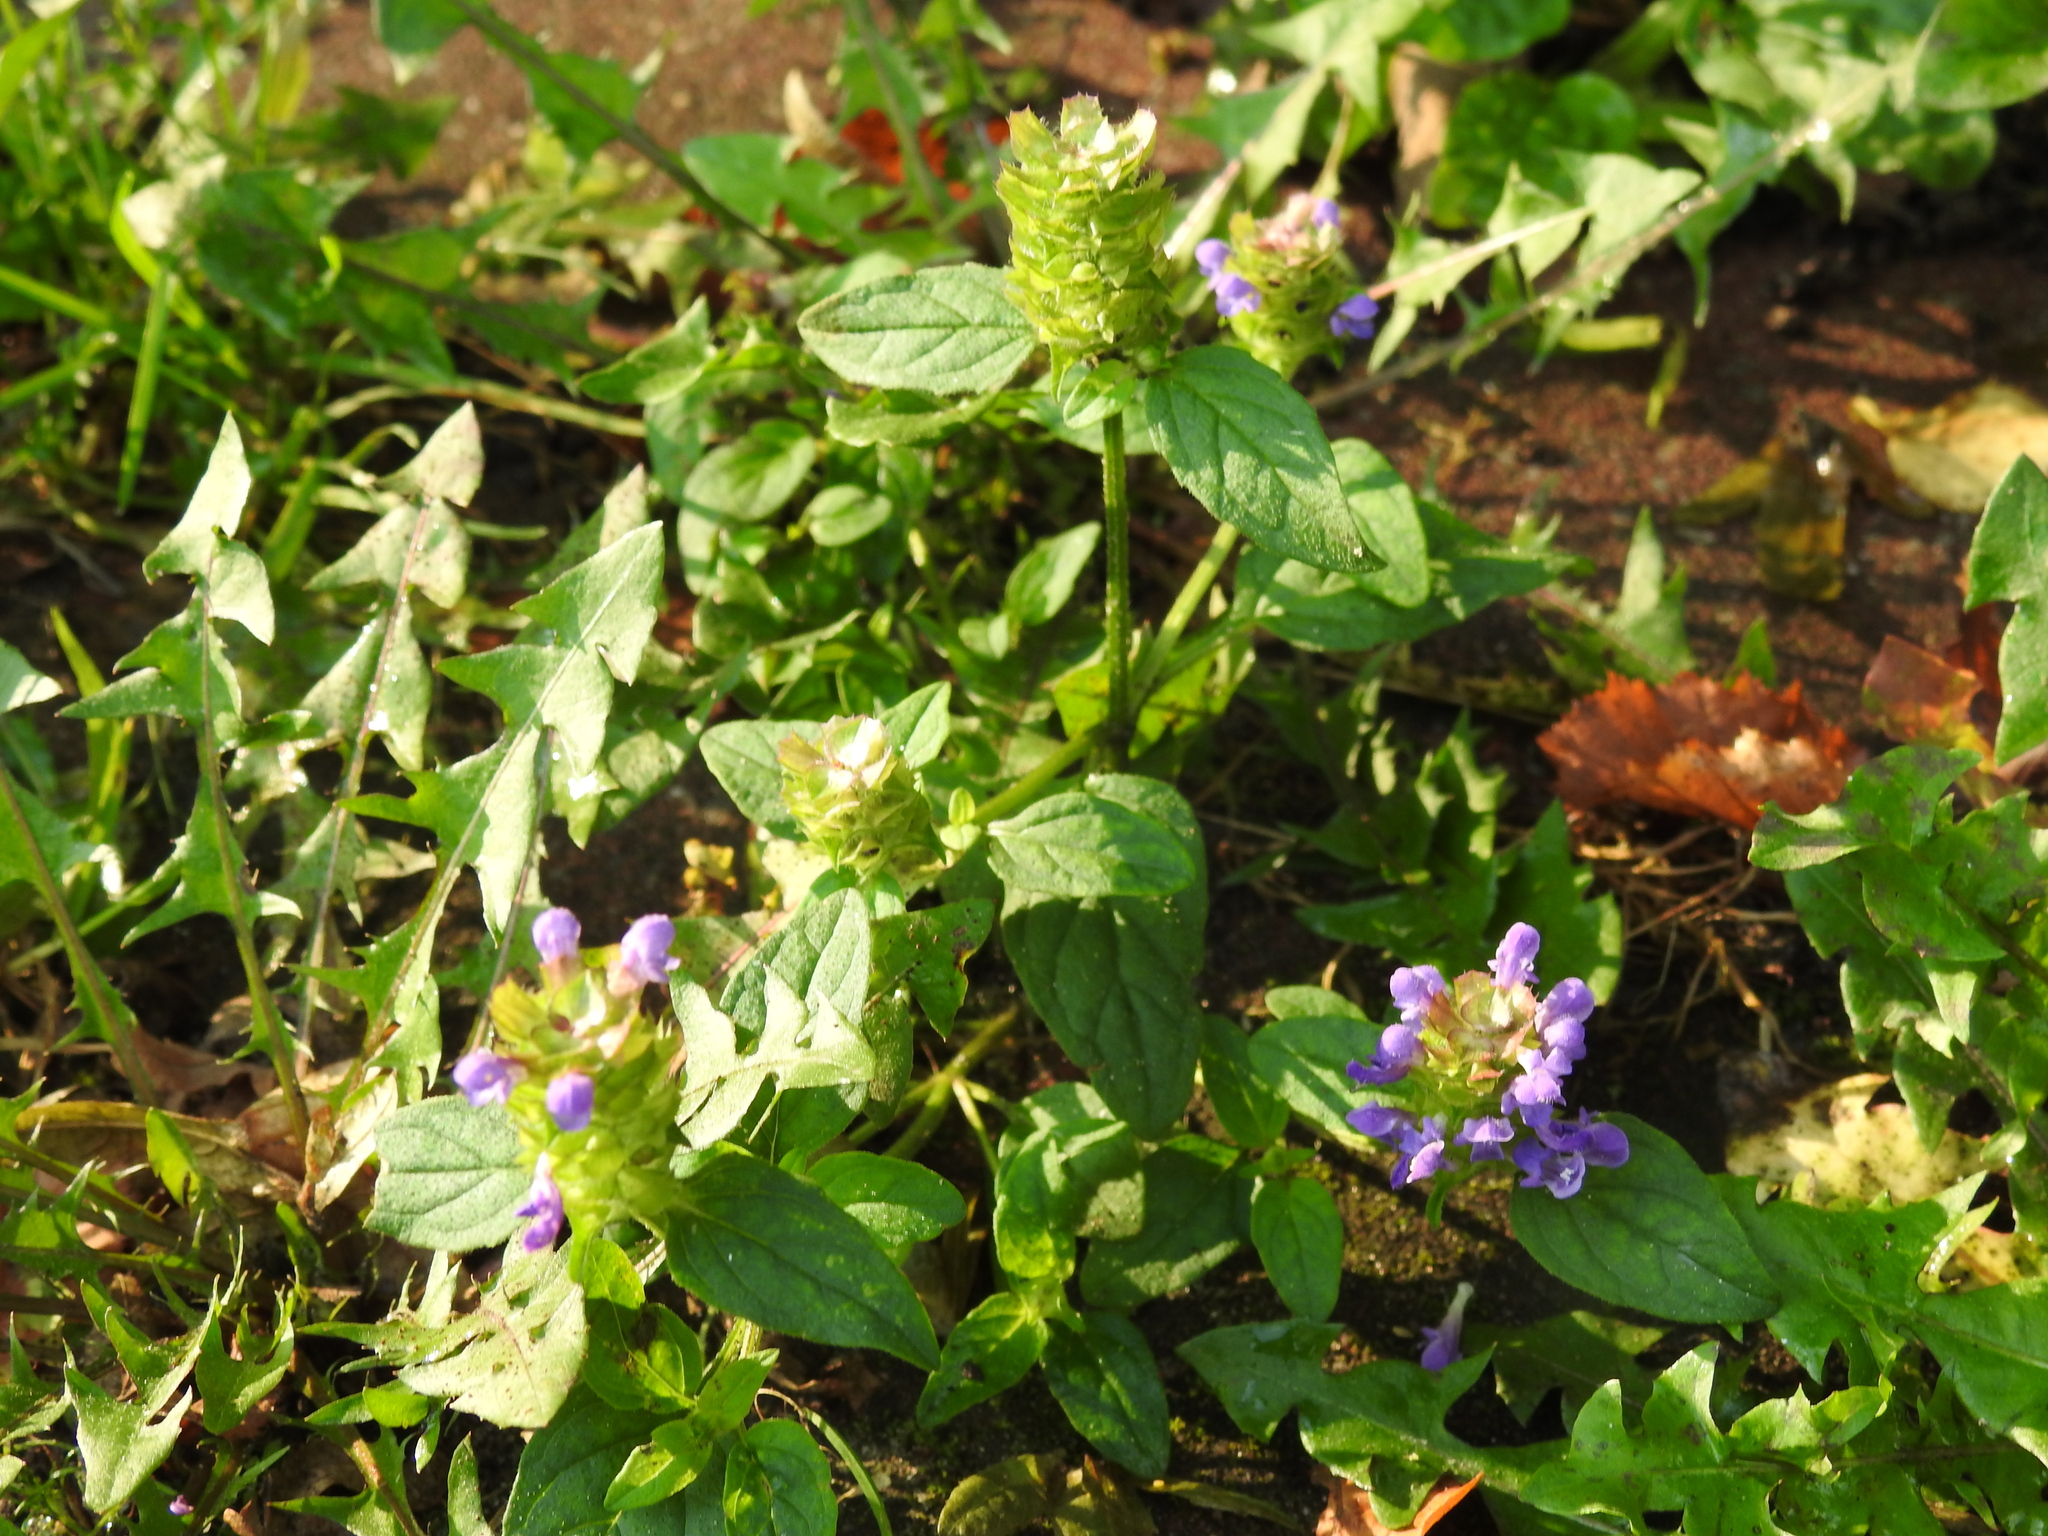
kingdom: Plantae
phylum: Tracheophyta
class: Magnoliopsida
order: Lamiales
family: Lamiaceae
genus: Prunella
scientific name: Prunella vulgaris
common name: Heal-all
